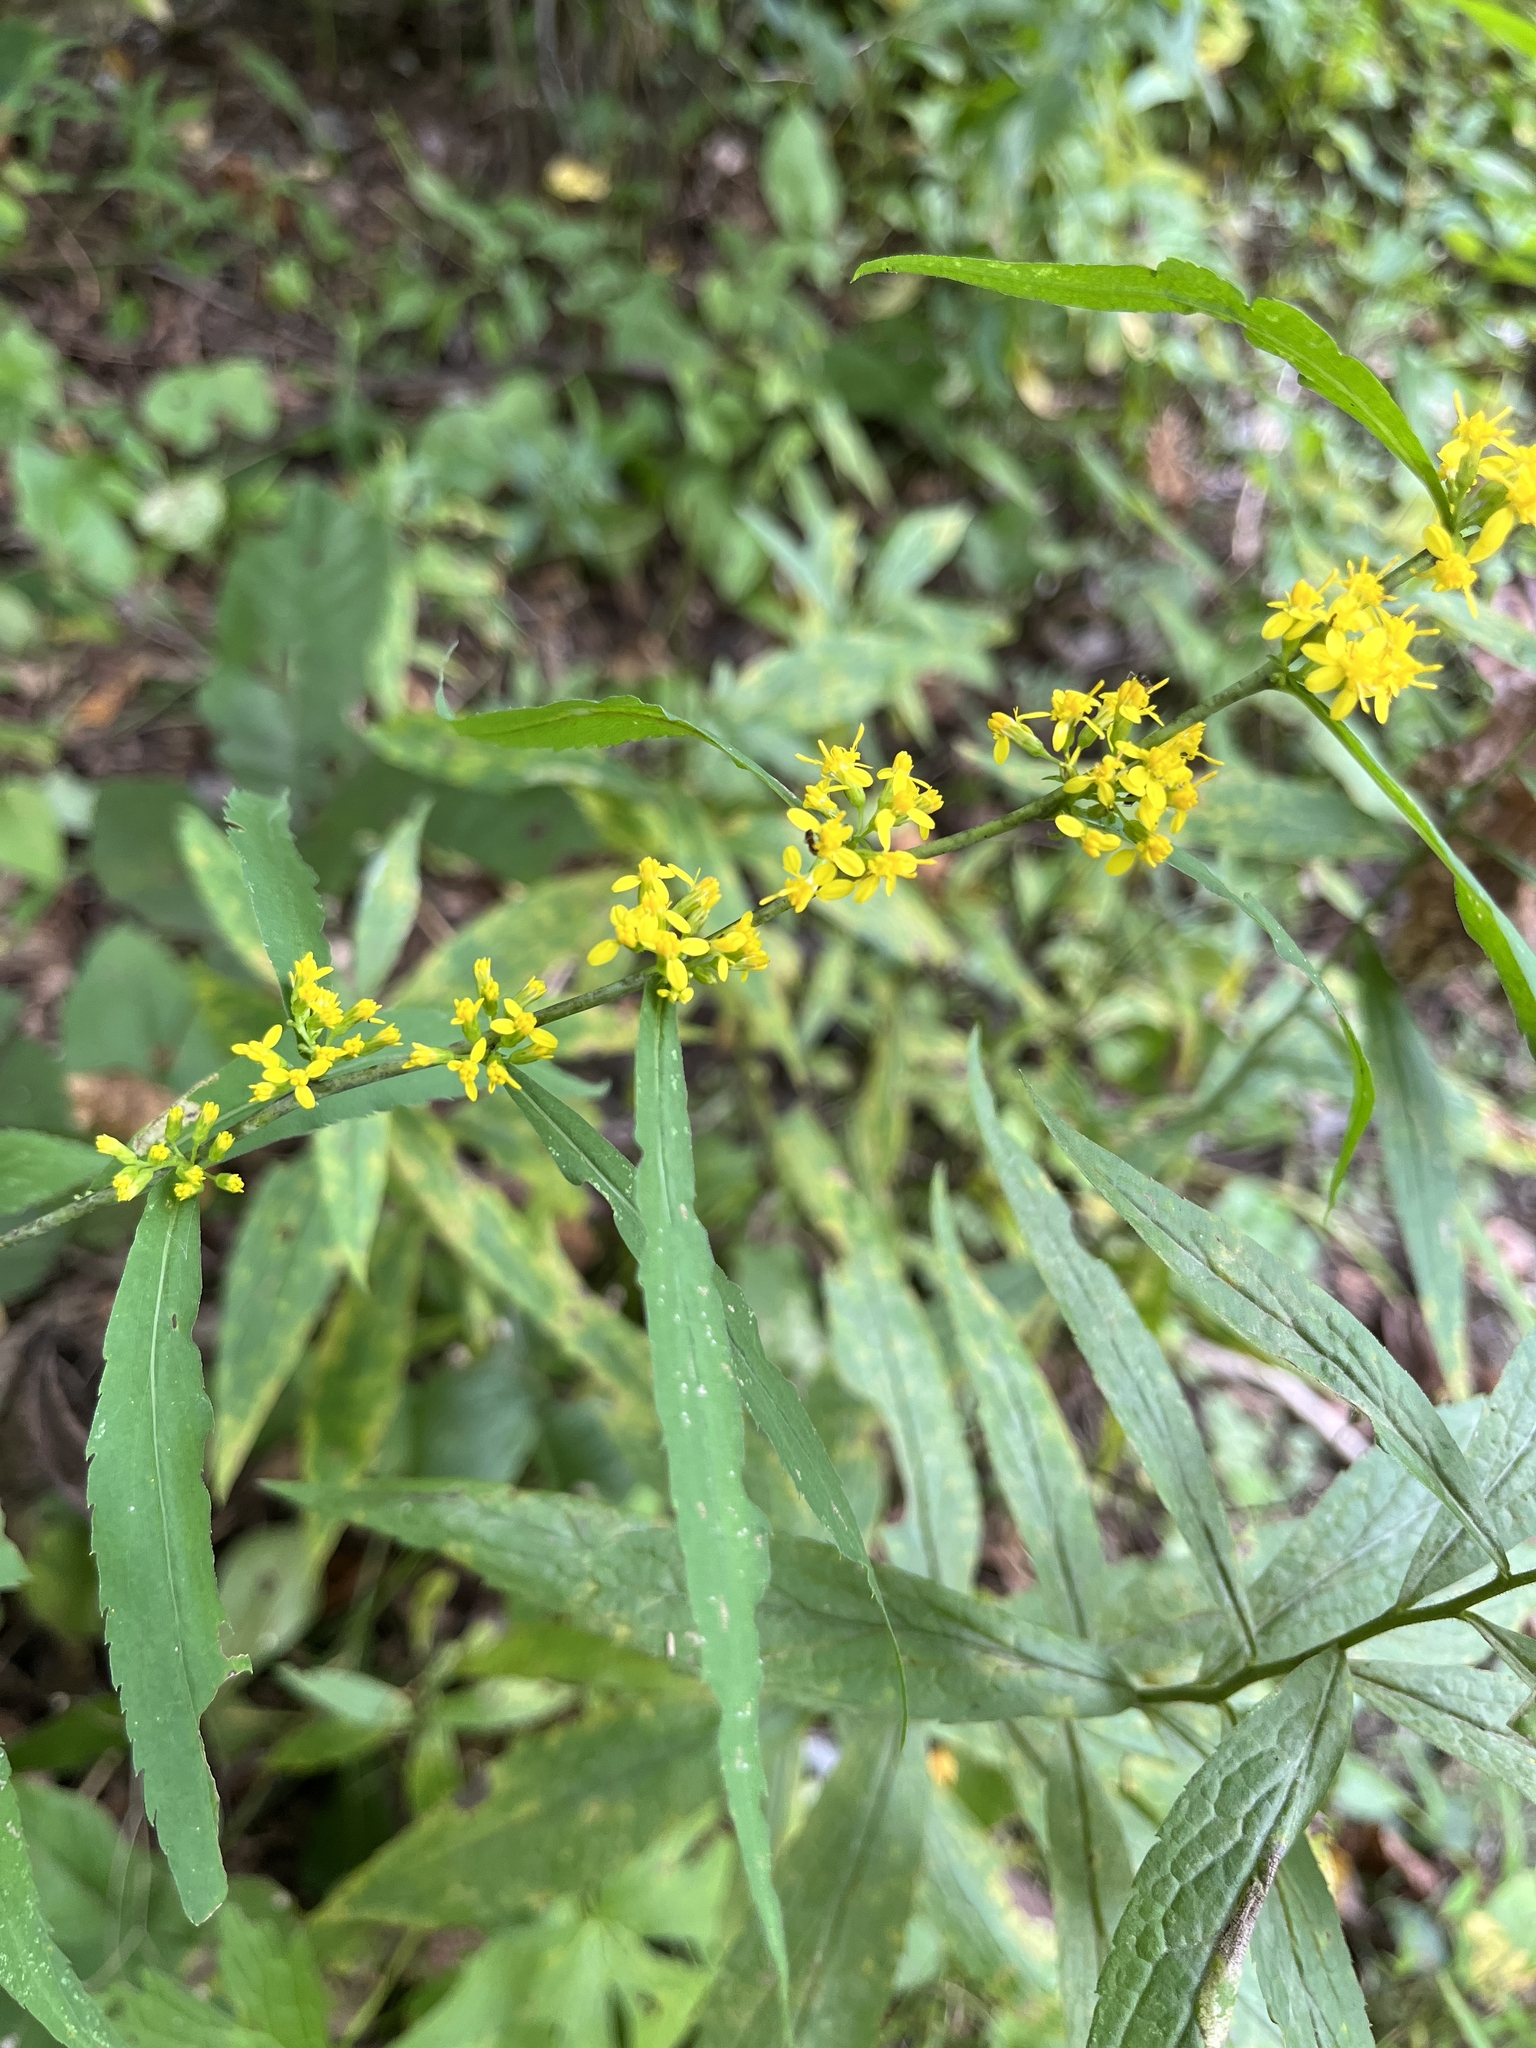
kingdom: Plantae
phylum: Tracheophyta
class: Magnoliopsida
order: Asterales
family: Asteraceae
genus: Solidago
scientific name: Solidago caesia
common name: Woodland goldenrod
